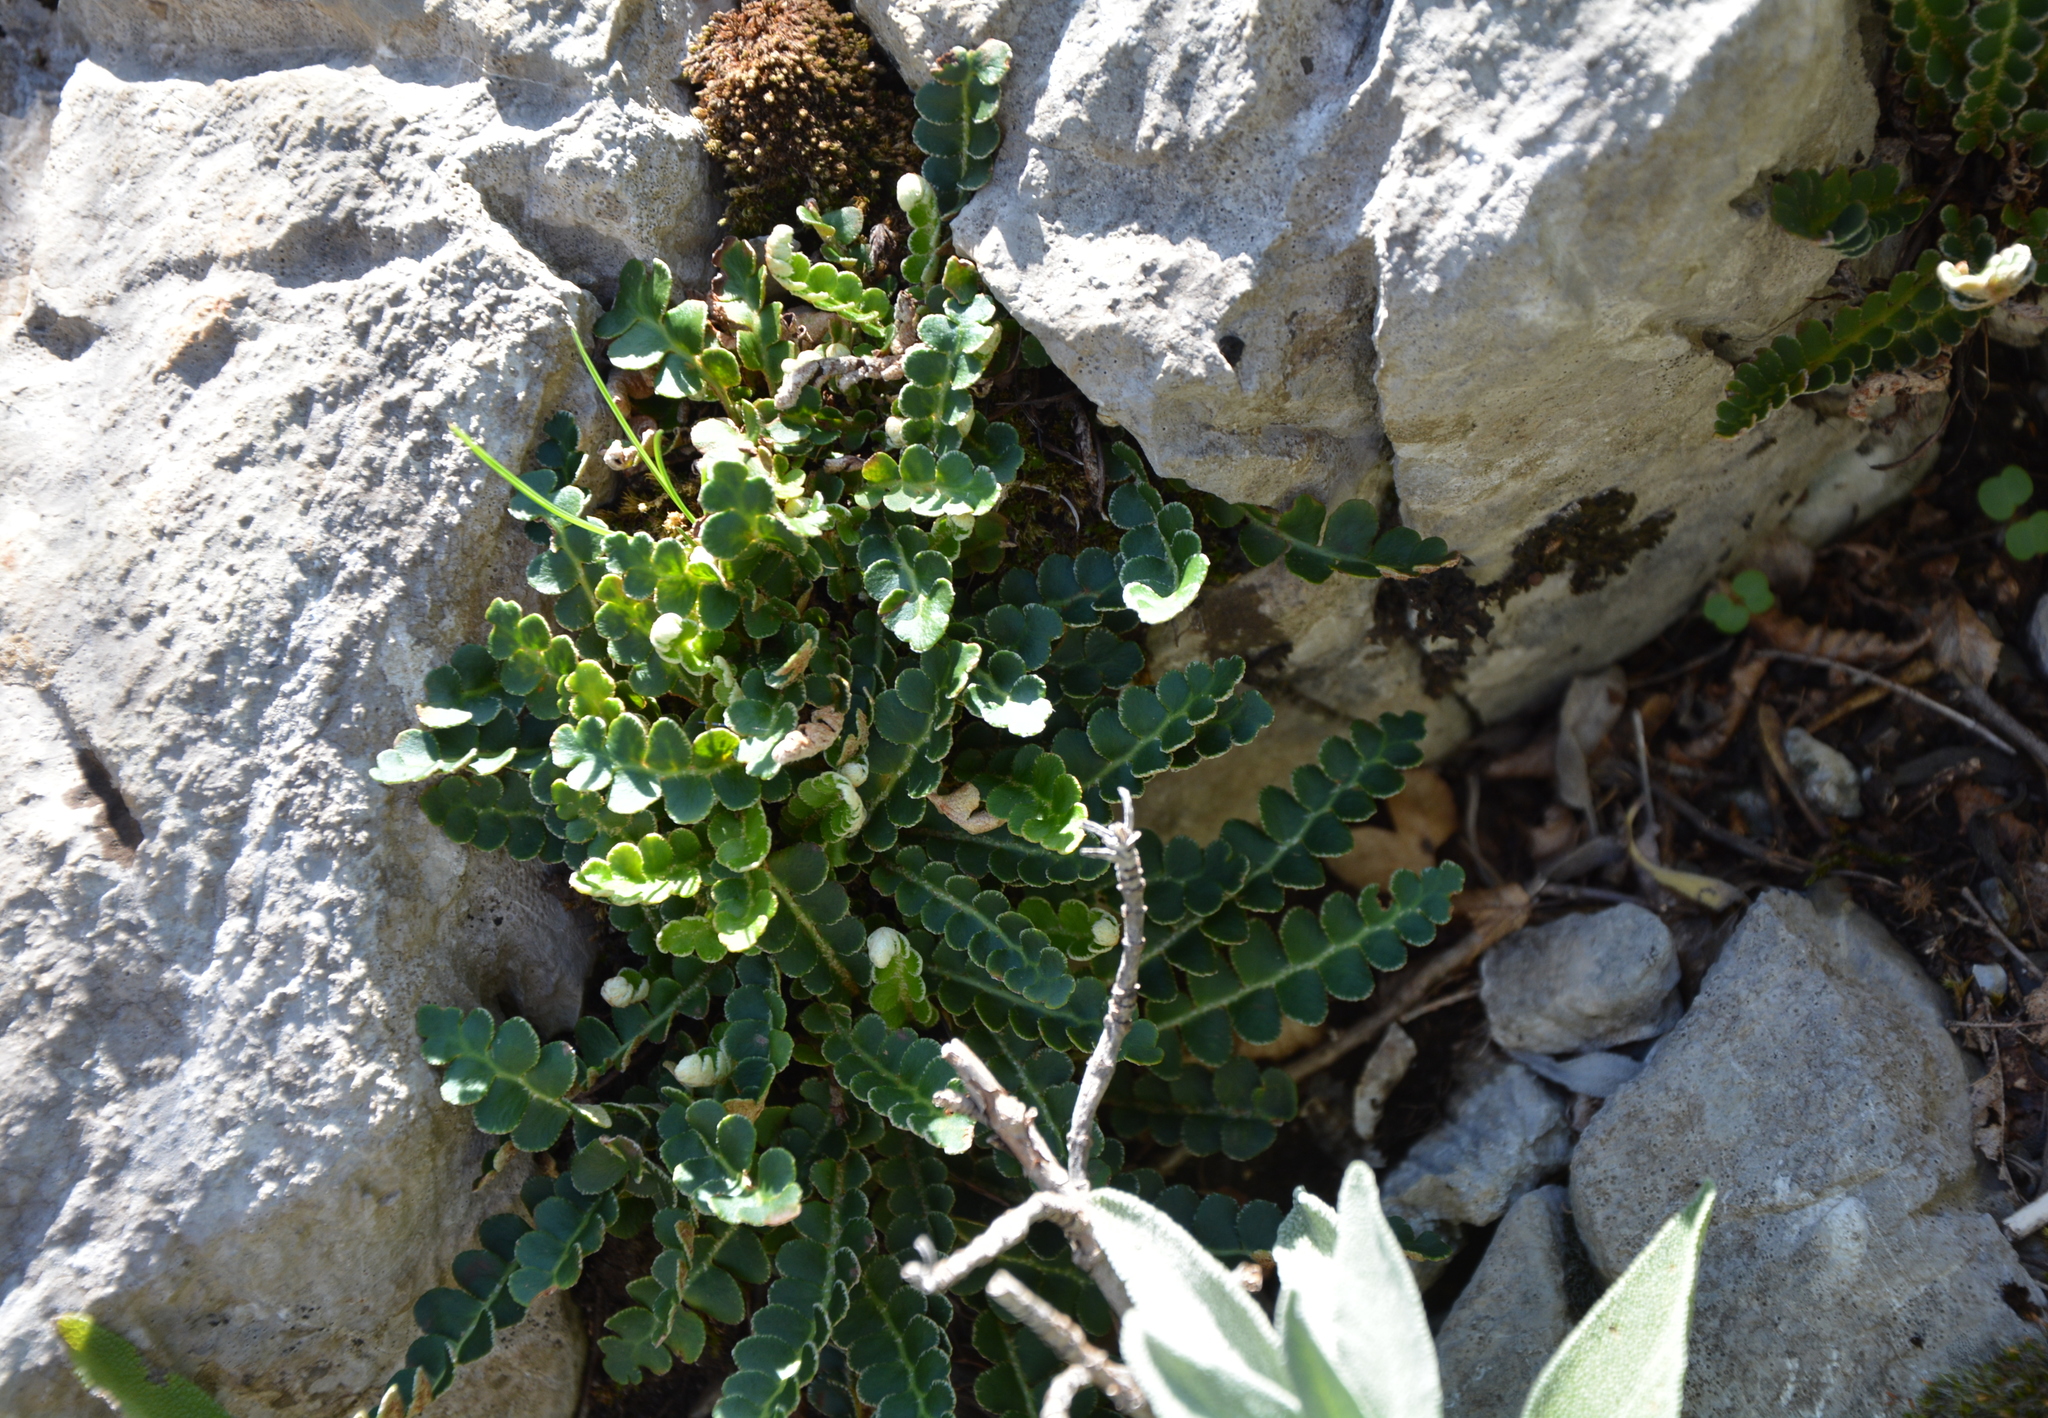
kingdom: Plantae
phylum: Tracheophyta
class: Polypodiopsida
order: Polypodiales
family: Aspleniaceae
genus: Asplenium
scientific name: Asplenium ceterach
